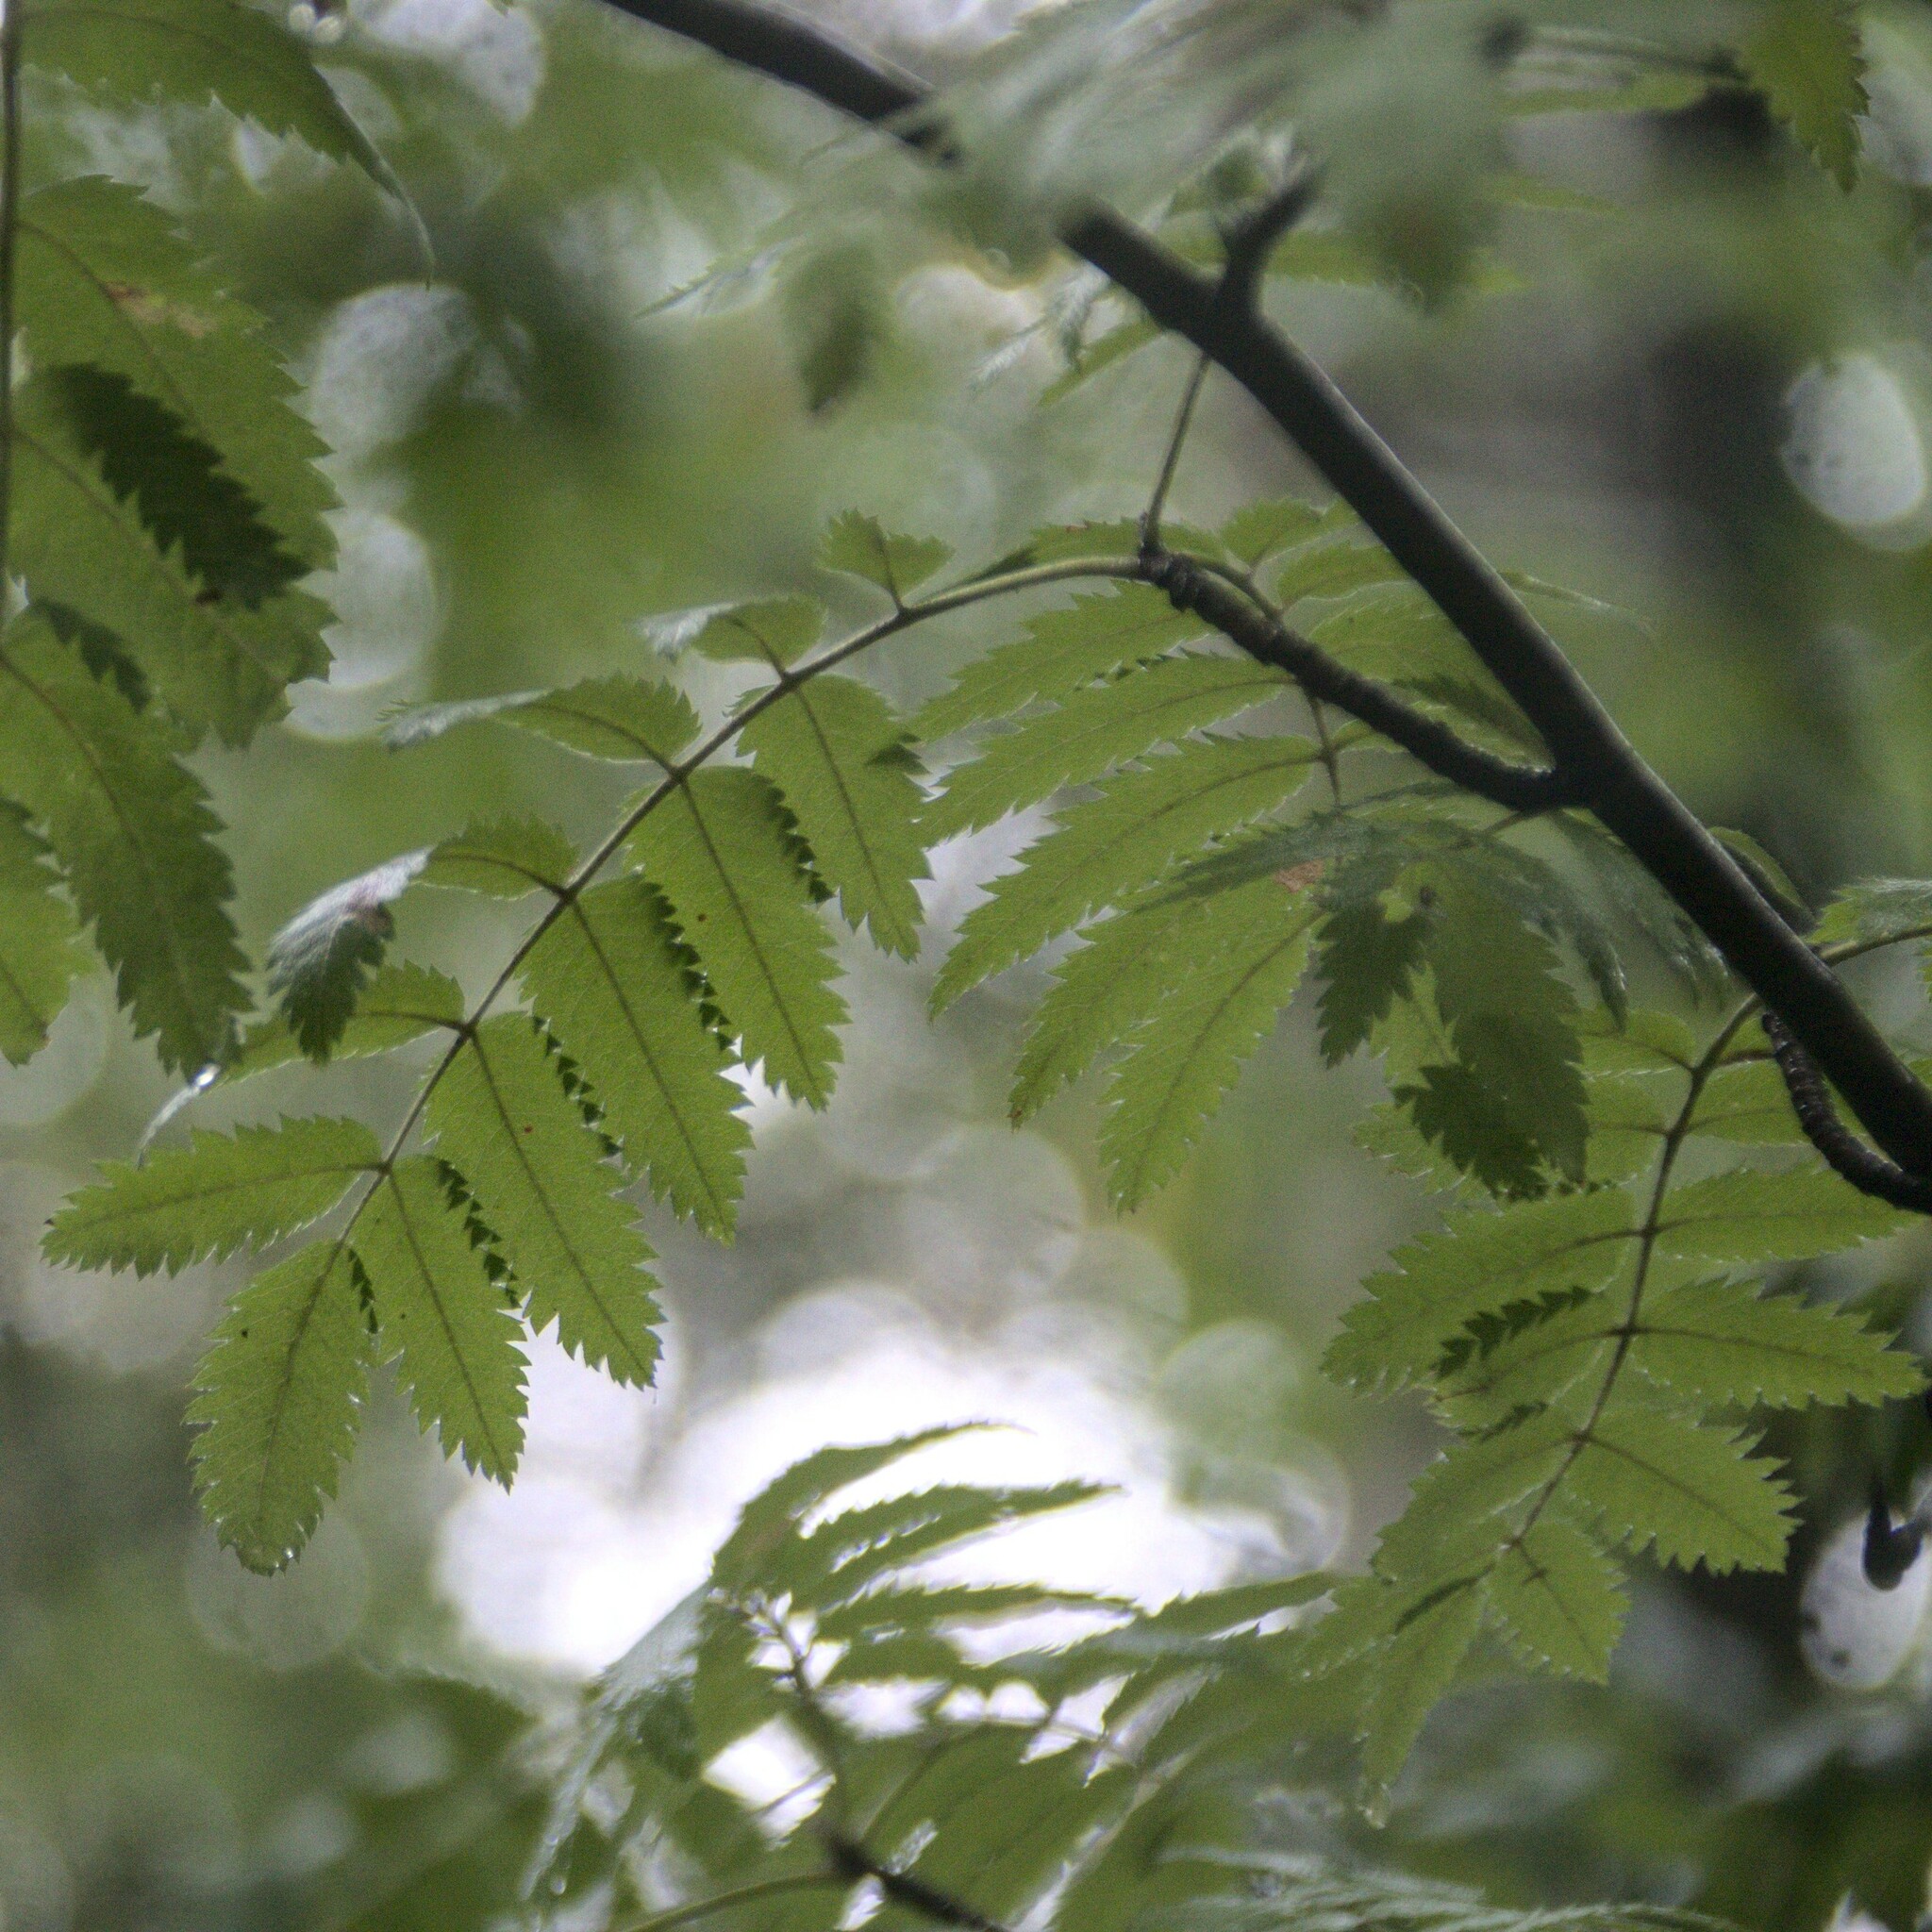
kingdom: Plantae
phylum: Tracheophyta
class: Magnoliopsida
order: Rosales
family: Rosaceae
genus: Sorbus
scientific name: Sorbus aucuparia
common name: Rowan
